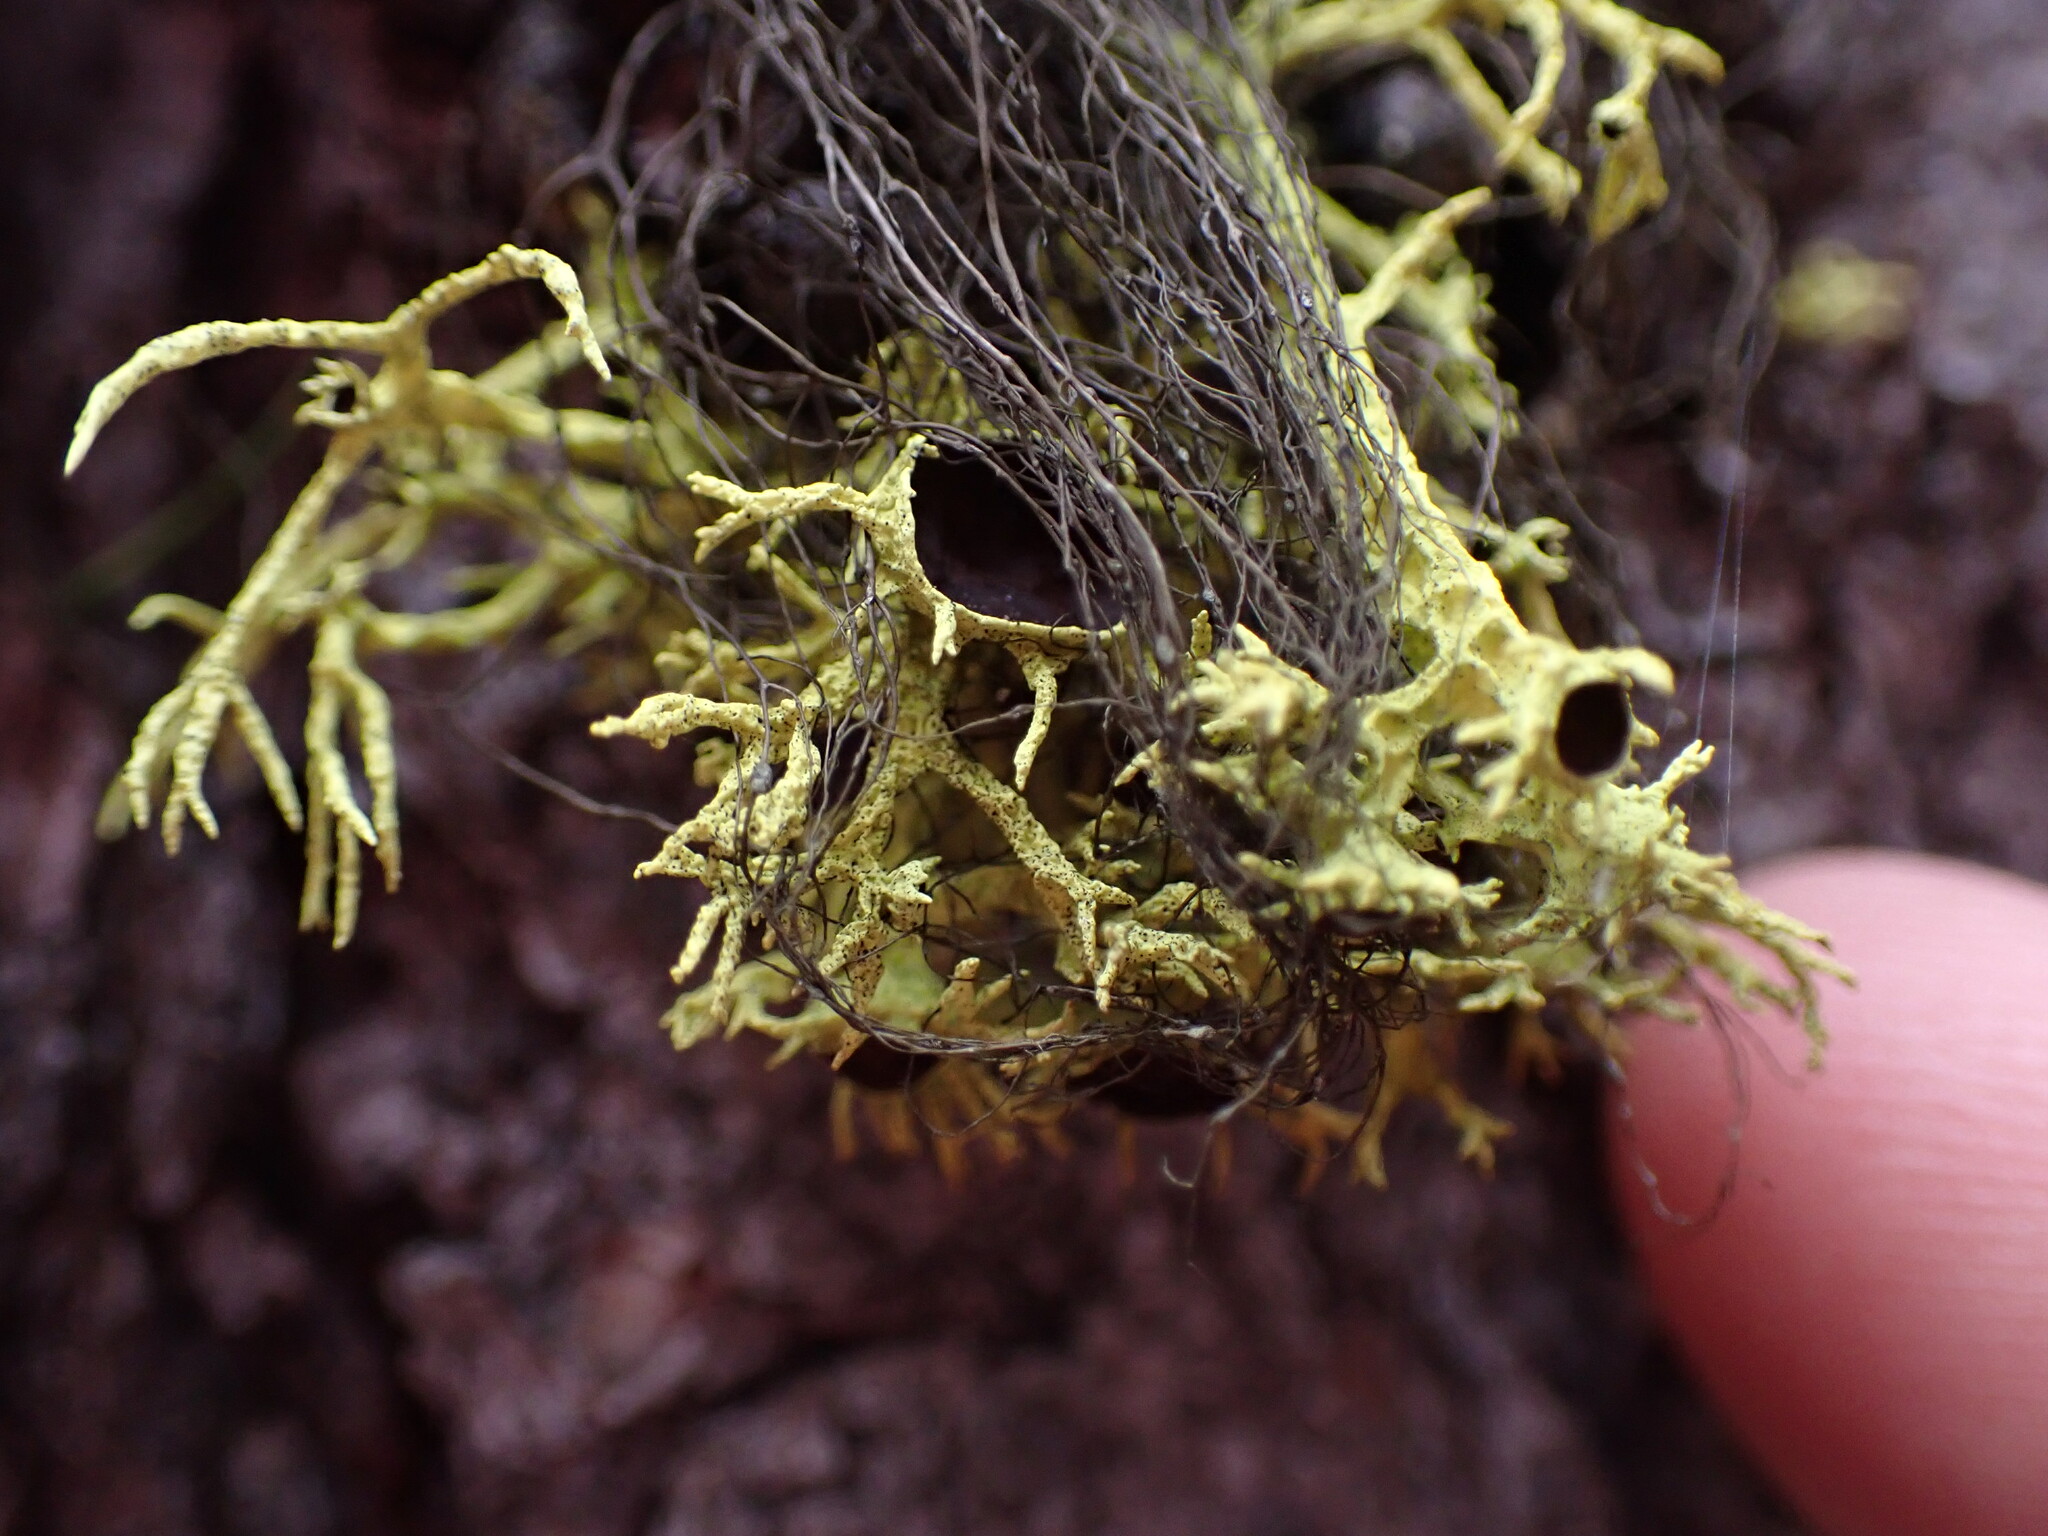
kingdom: Fungi
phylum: Ascomycota
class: Lecanoromycetes
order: Lecanorales
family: Parmeliaceae
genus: Letharia
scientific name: Letharia columbiana
